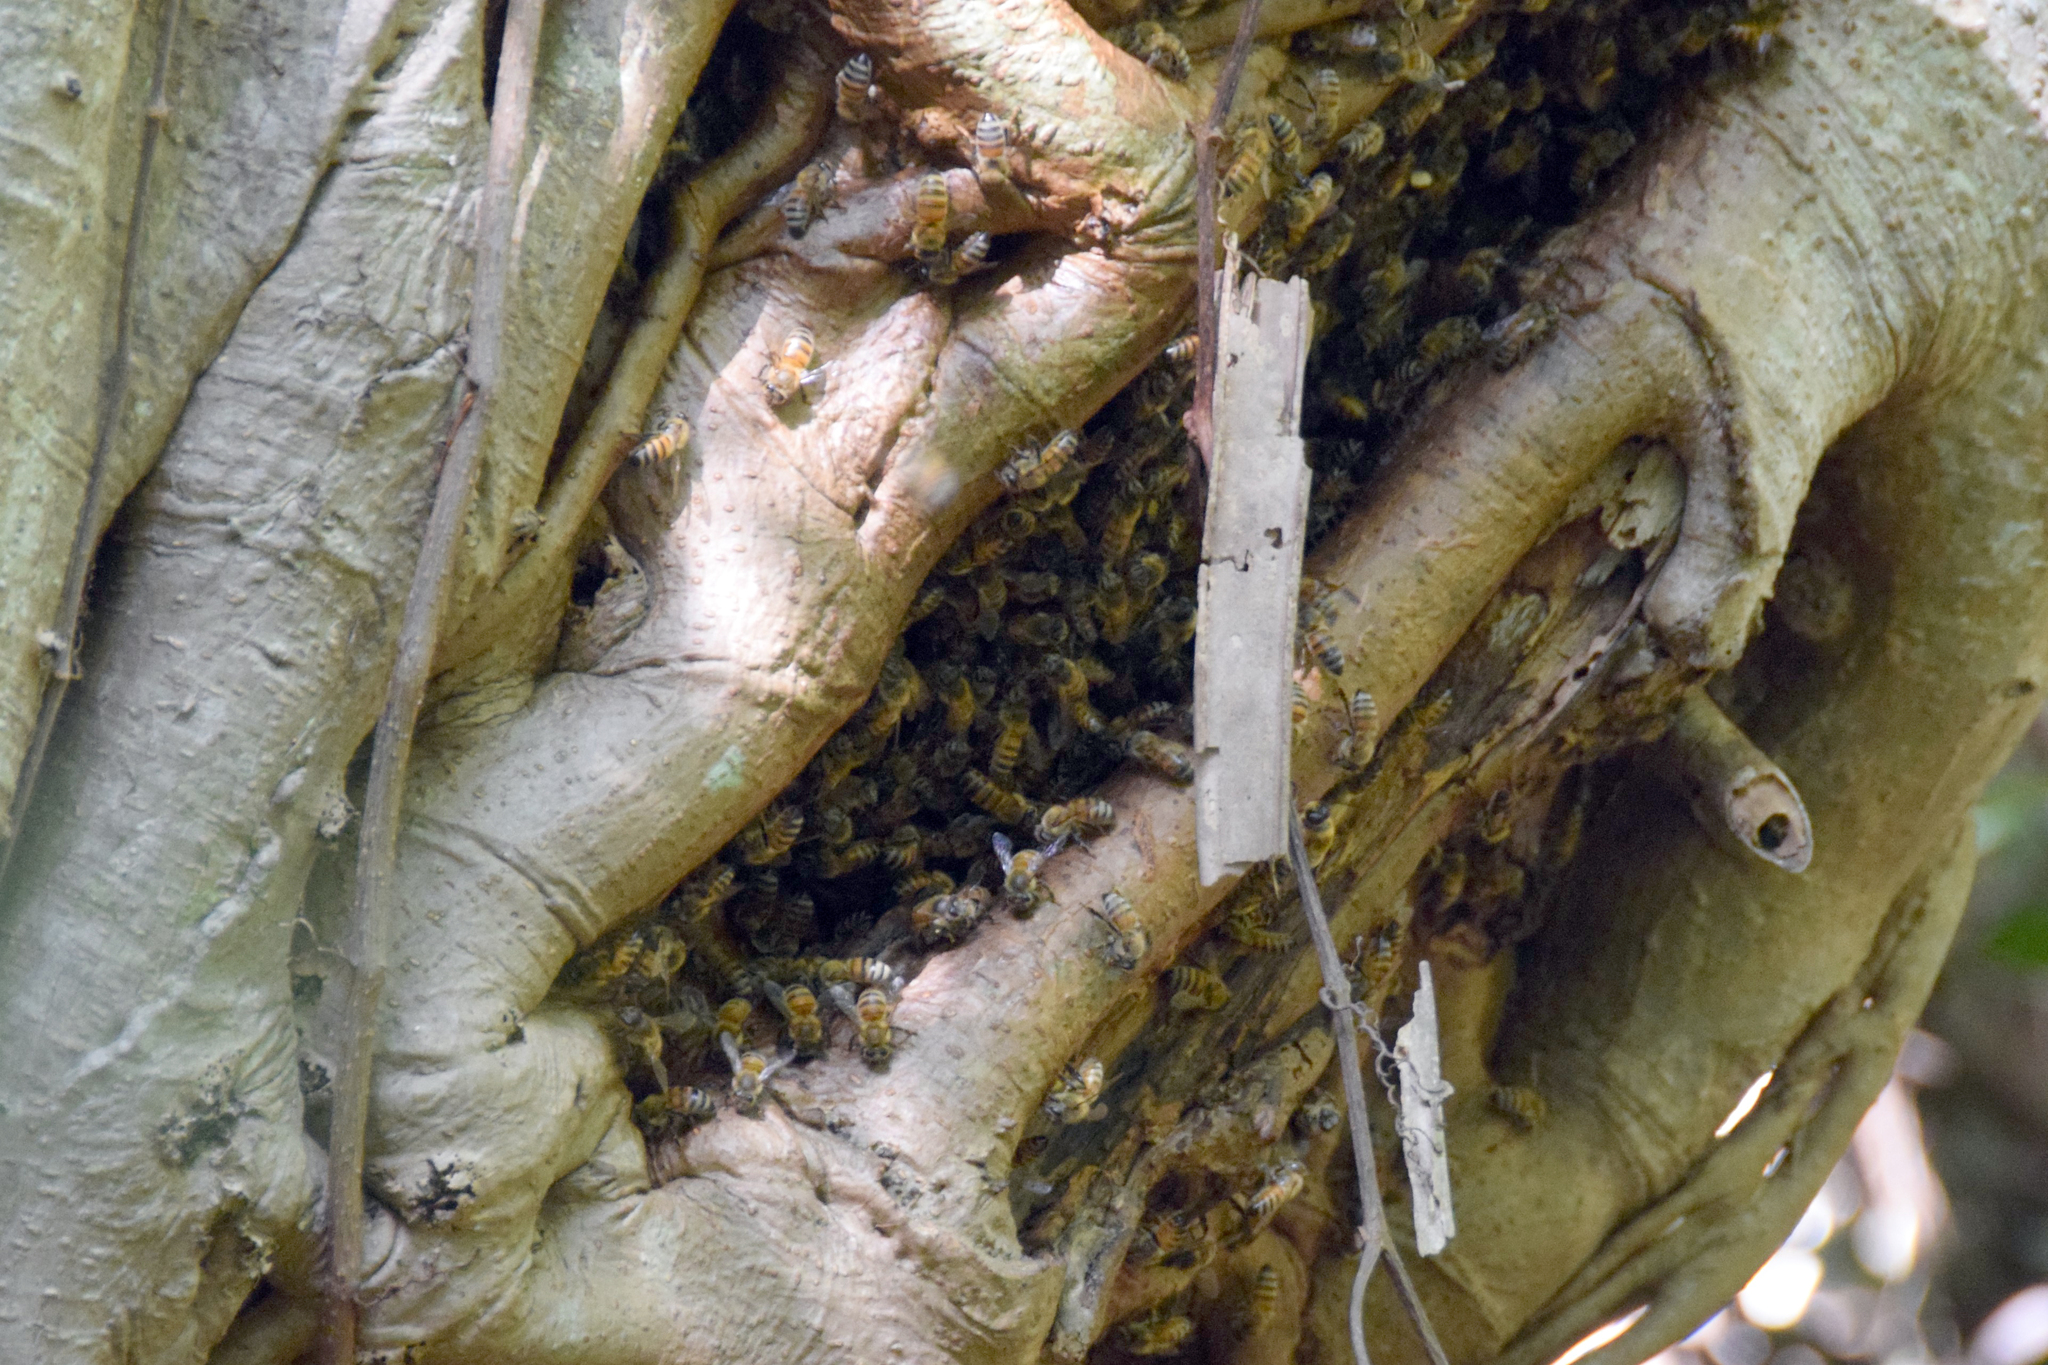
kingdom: Animalia
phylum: Arthropoda
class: Insecta
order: Hymenoptera
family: Apidae
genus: Apis
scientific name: Apis mellifera
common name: Honey bee
